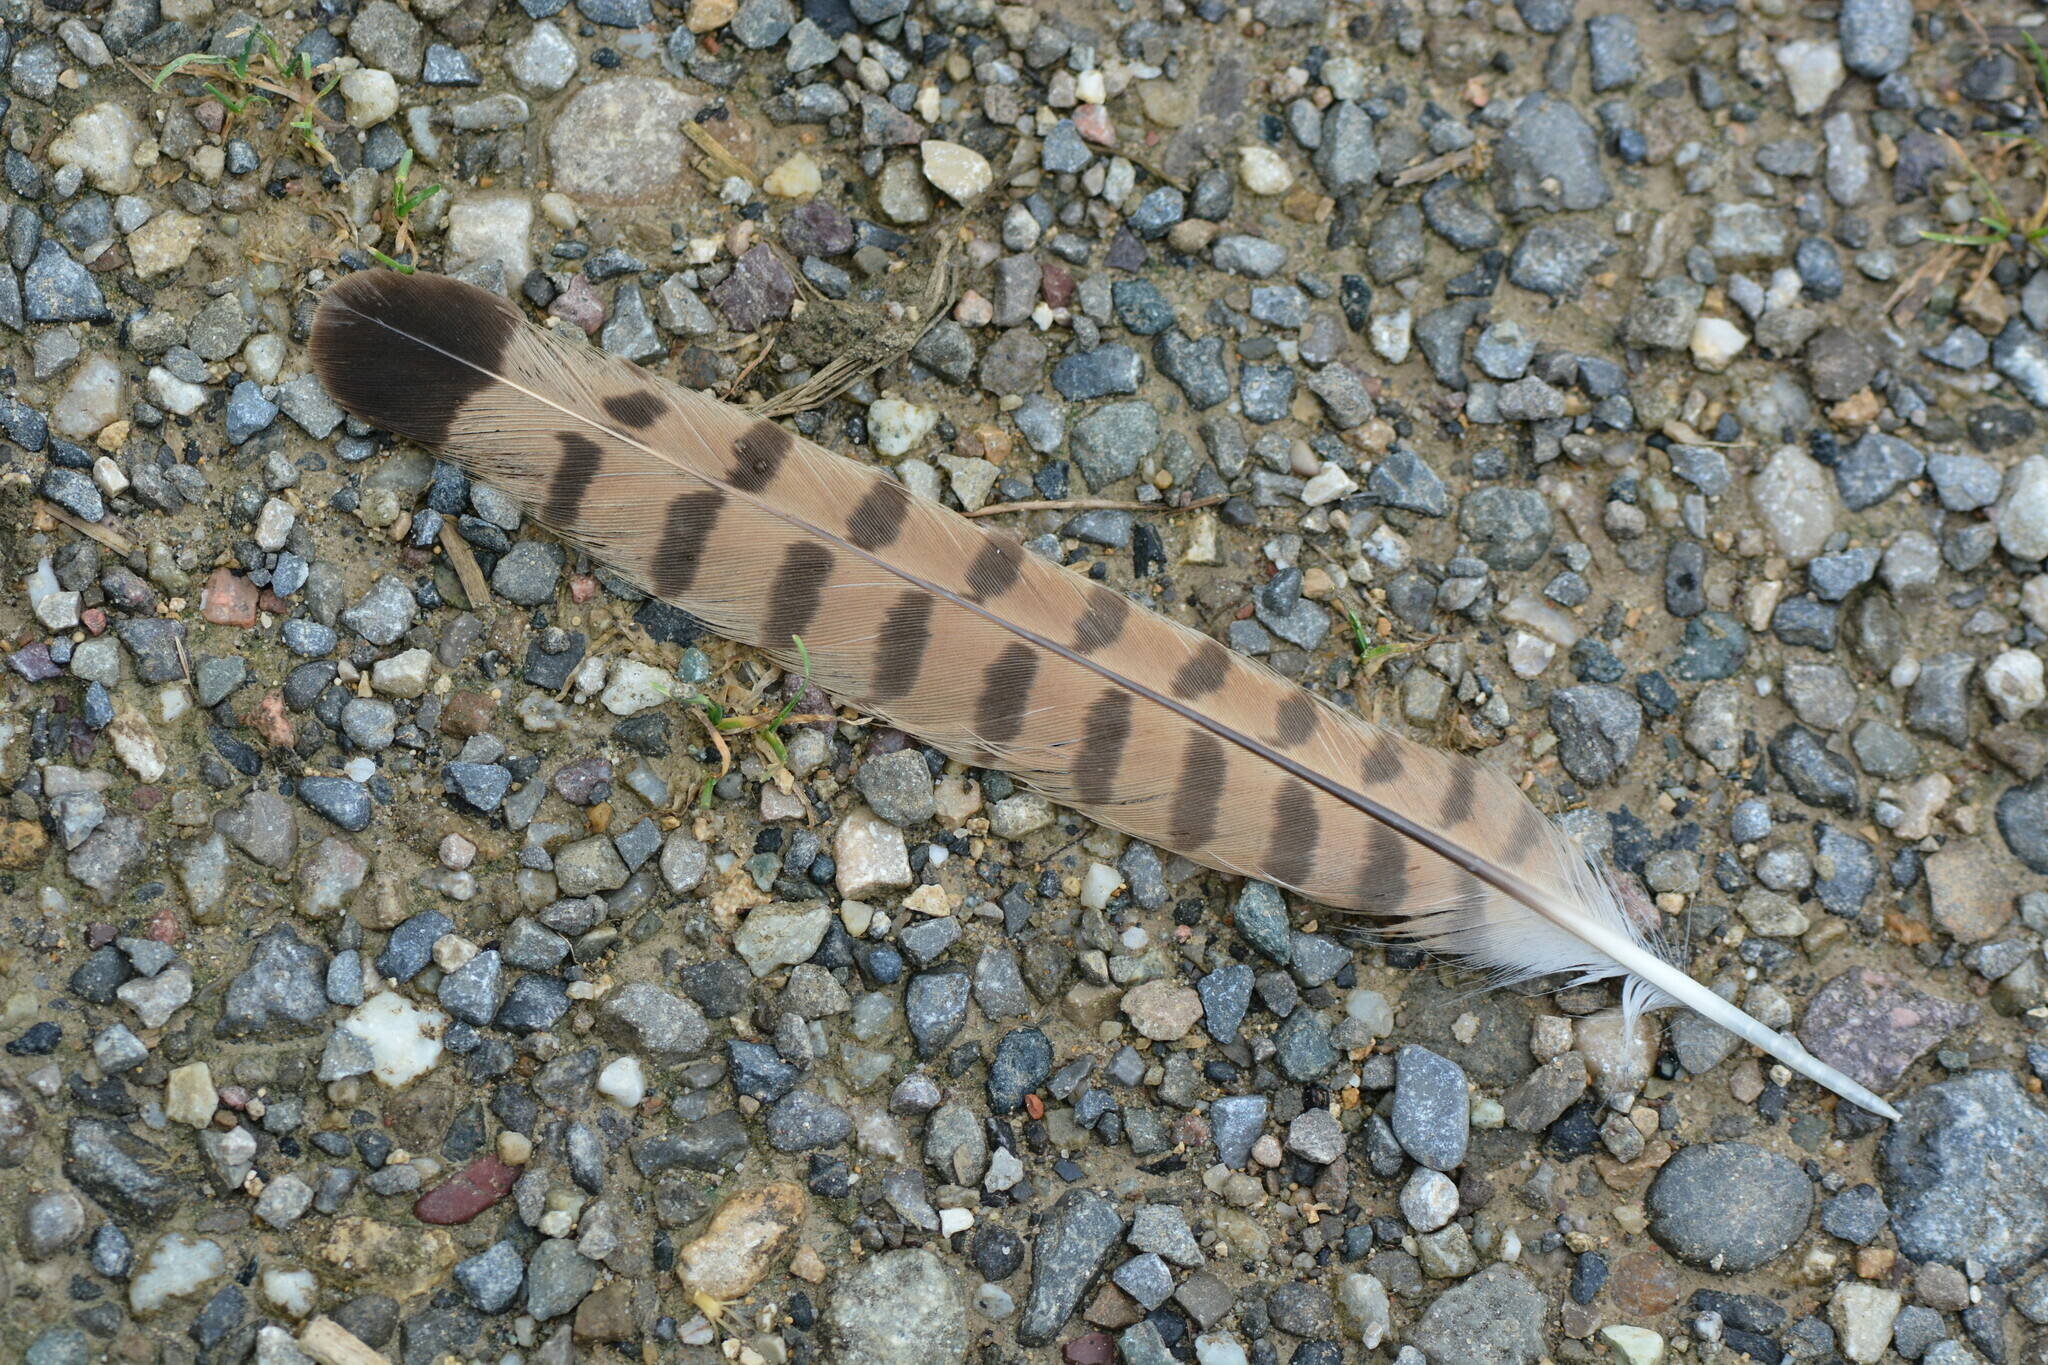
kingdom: Animalia
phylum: Chordata
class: Aves
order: Falconiformes
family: Falconidae
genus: Falco
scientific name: Falco tinnunculus
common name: Common kestrel
